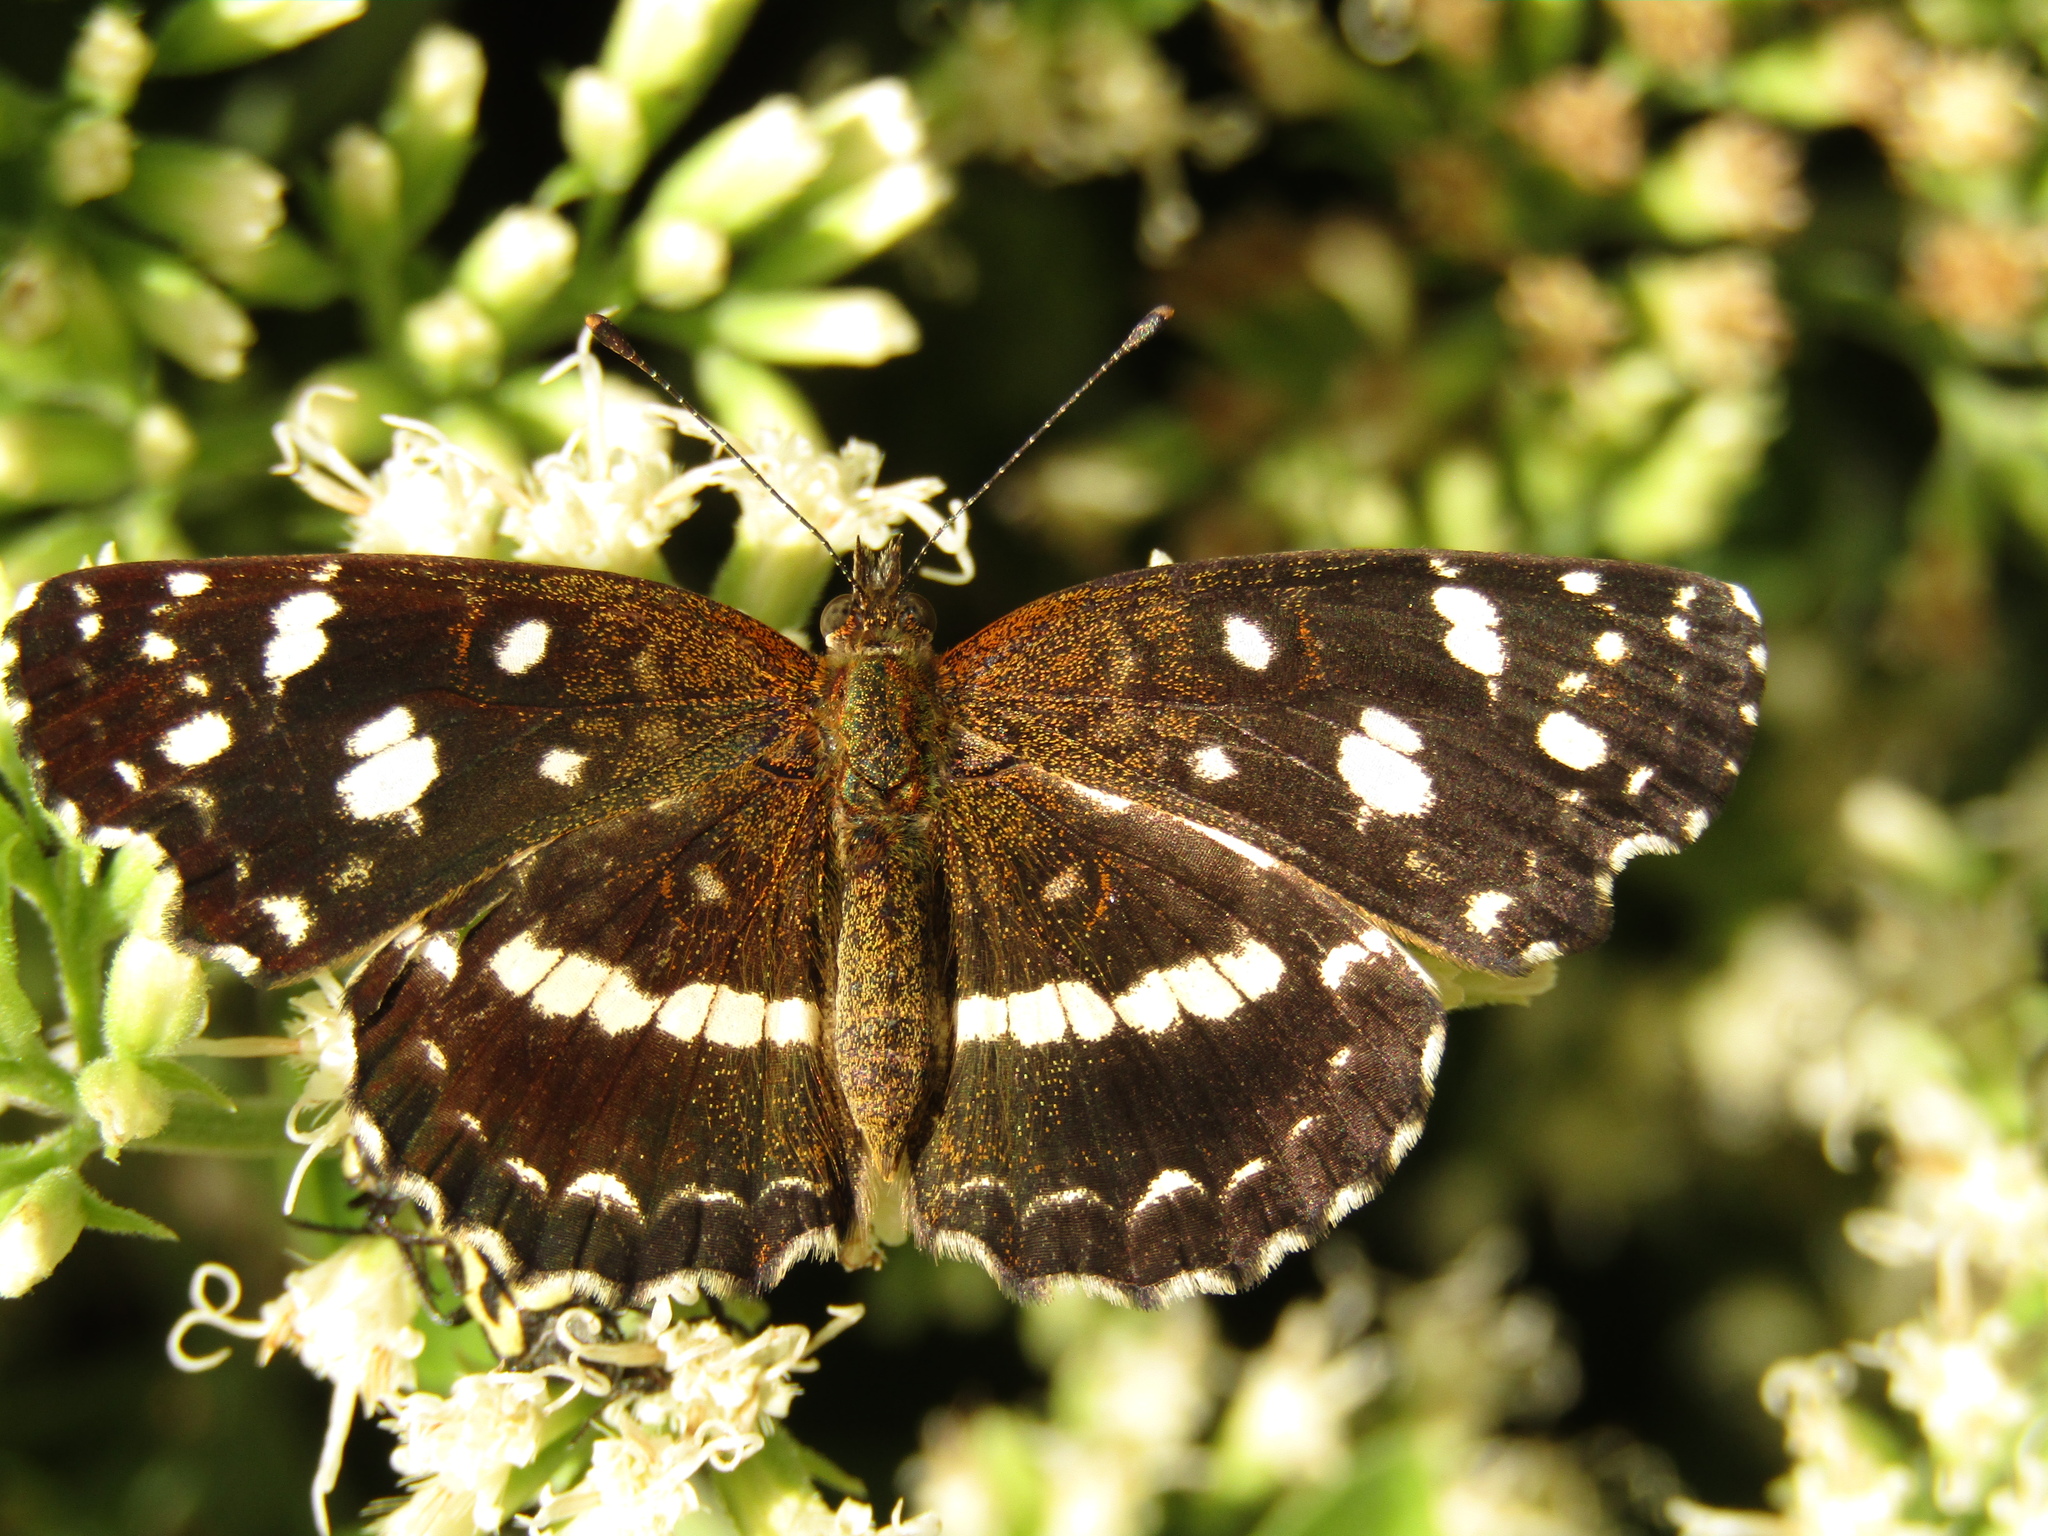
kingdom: Animalia
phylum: Arthropoda
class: Insecta
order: Lepidoptera
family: Nymphalidae
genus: Ortilia
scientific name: Ortilia ithra
